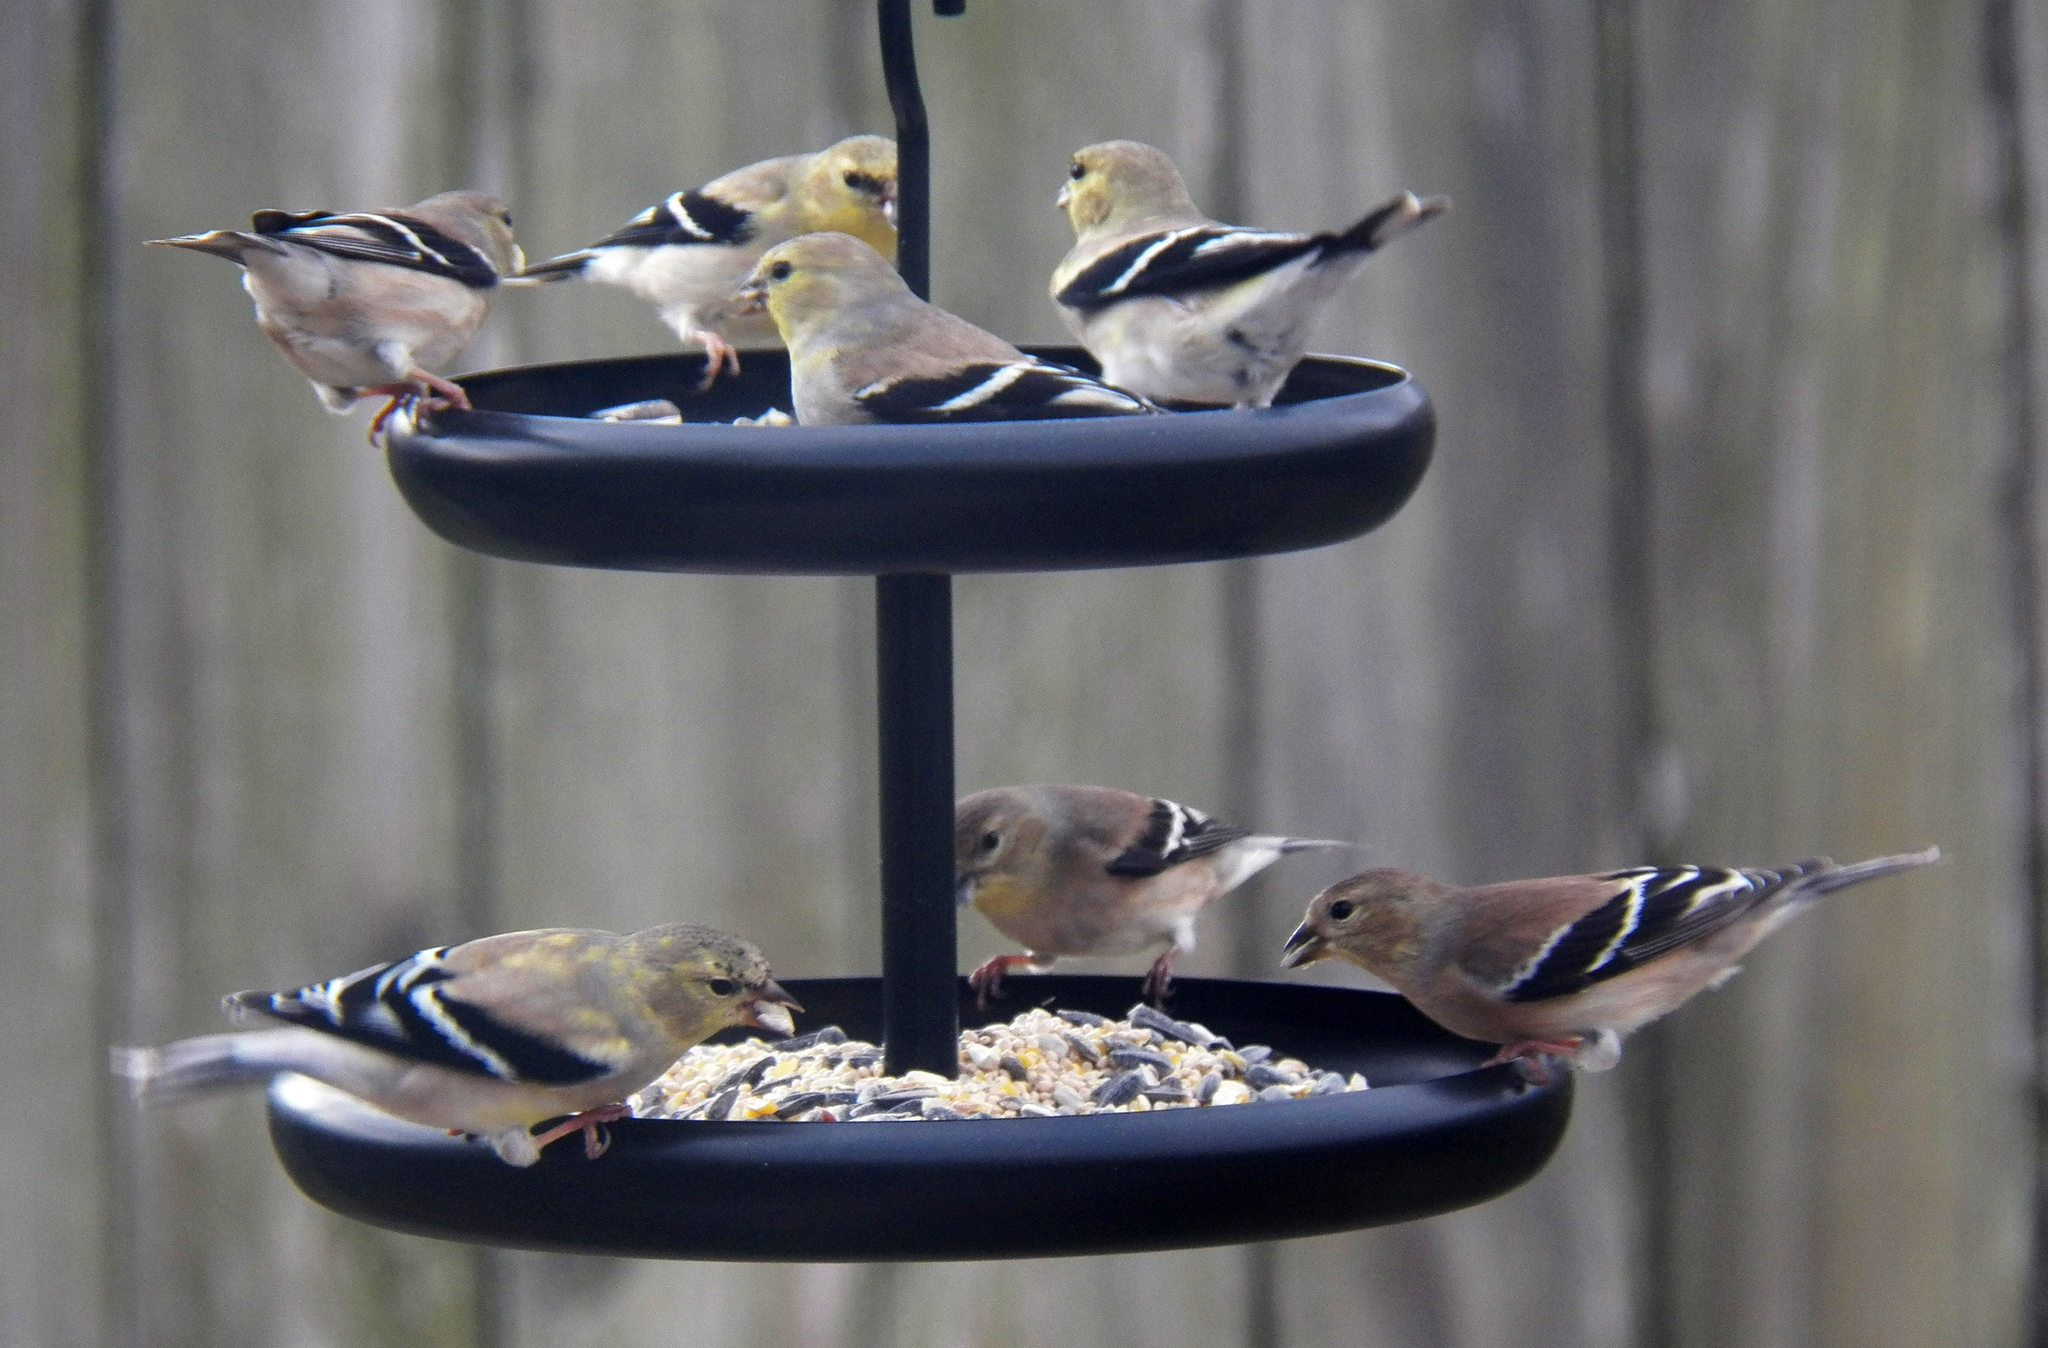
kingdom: Animalia
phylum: Chordata
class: Aves
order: Passeriformes
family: Fringillidae
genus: Spinus
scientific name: Spinus tristis
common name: American goldfinch
